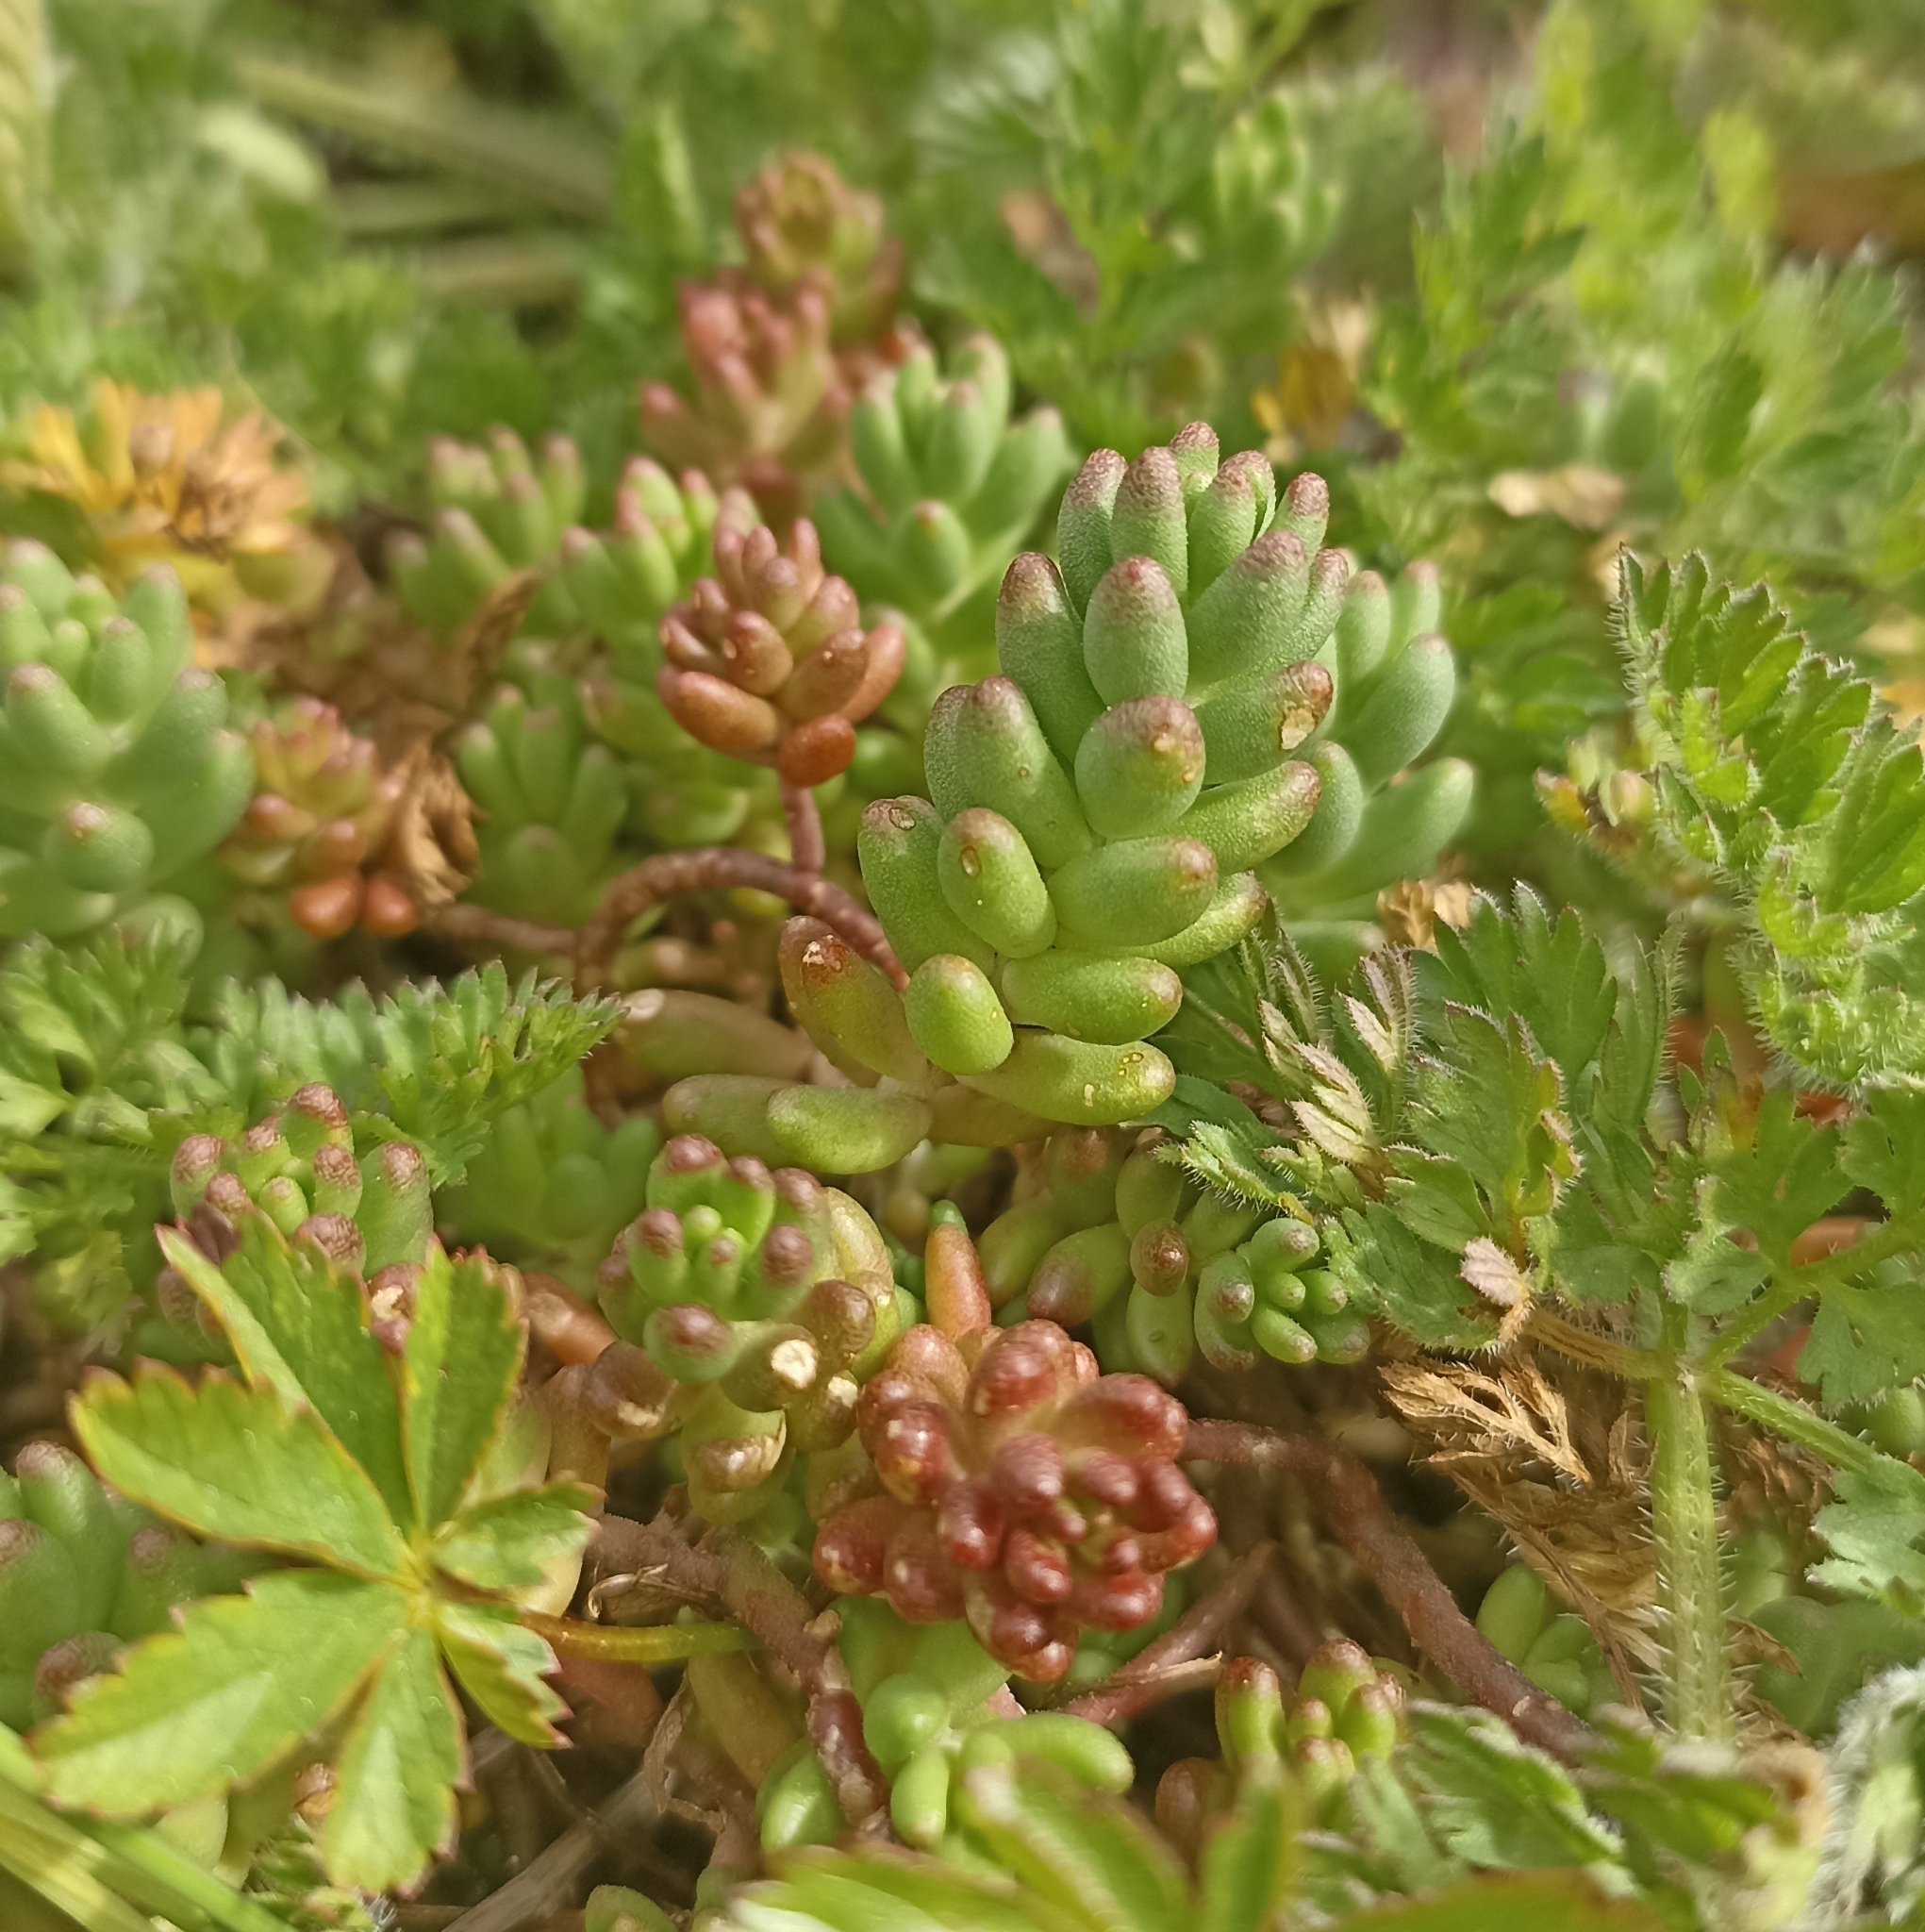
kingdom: Plantae
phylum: Tracheophyta
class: Magnoliopsida
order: Saxifragales
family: Crassulaceae
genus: Sedum
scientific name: Sedum album
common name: White stonecrop
